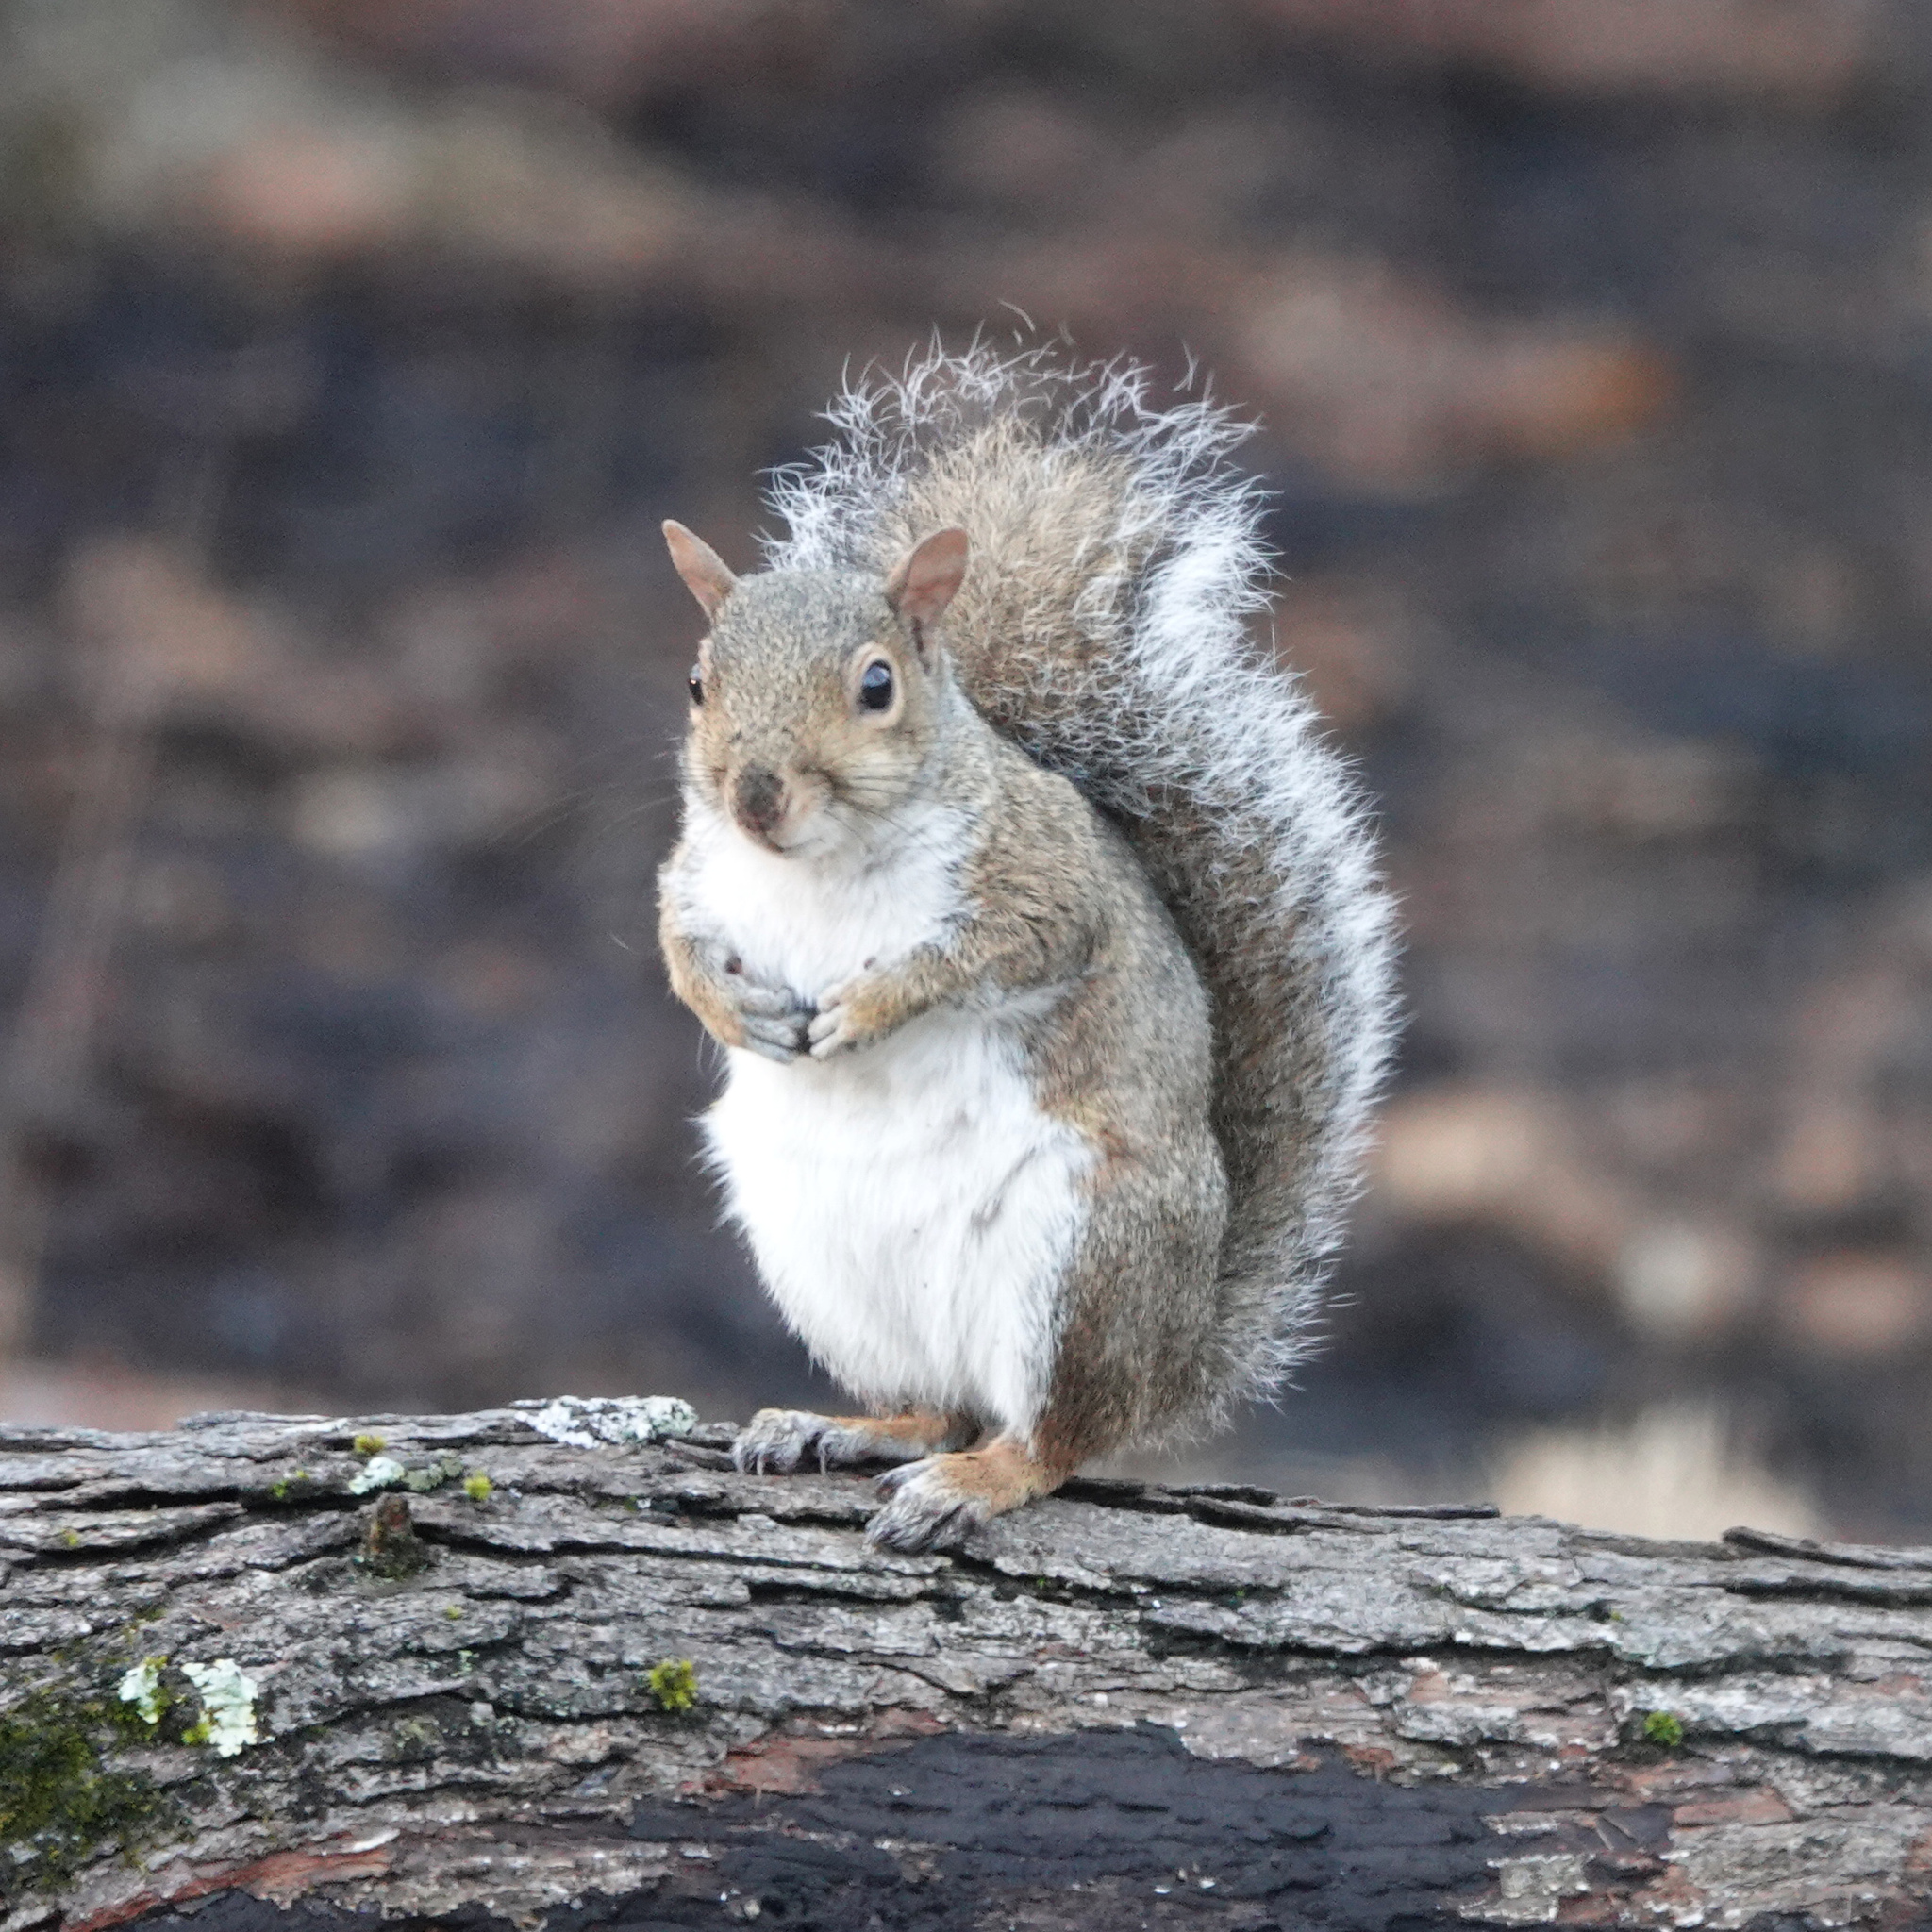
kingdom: Animalia
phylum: Chordata
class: Mammalia
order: Rodentia
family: Sciuridae
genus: Sciurus
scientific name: Sciurus carolinensis
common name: Eastern gray squirrel
